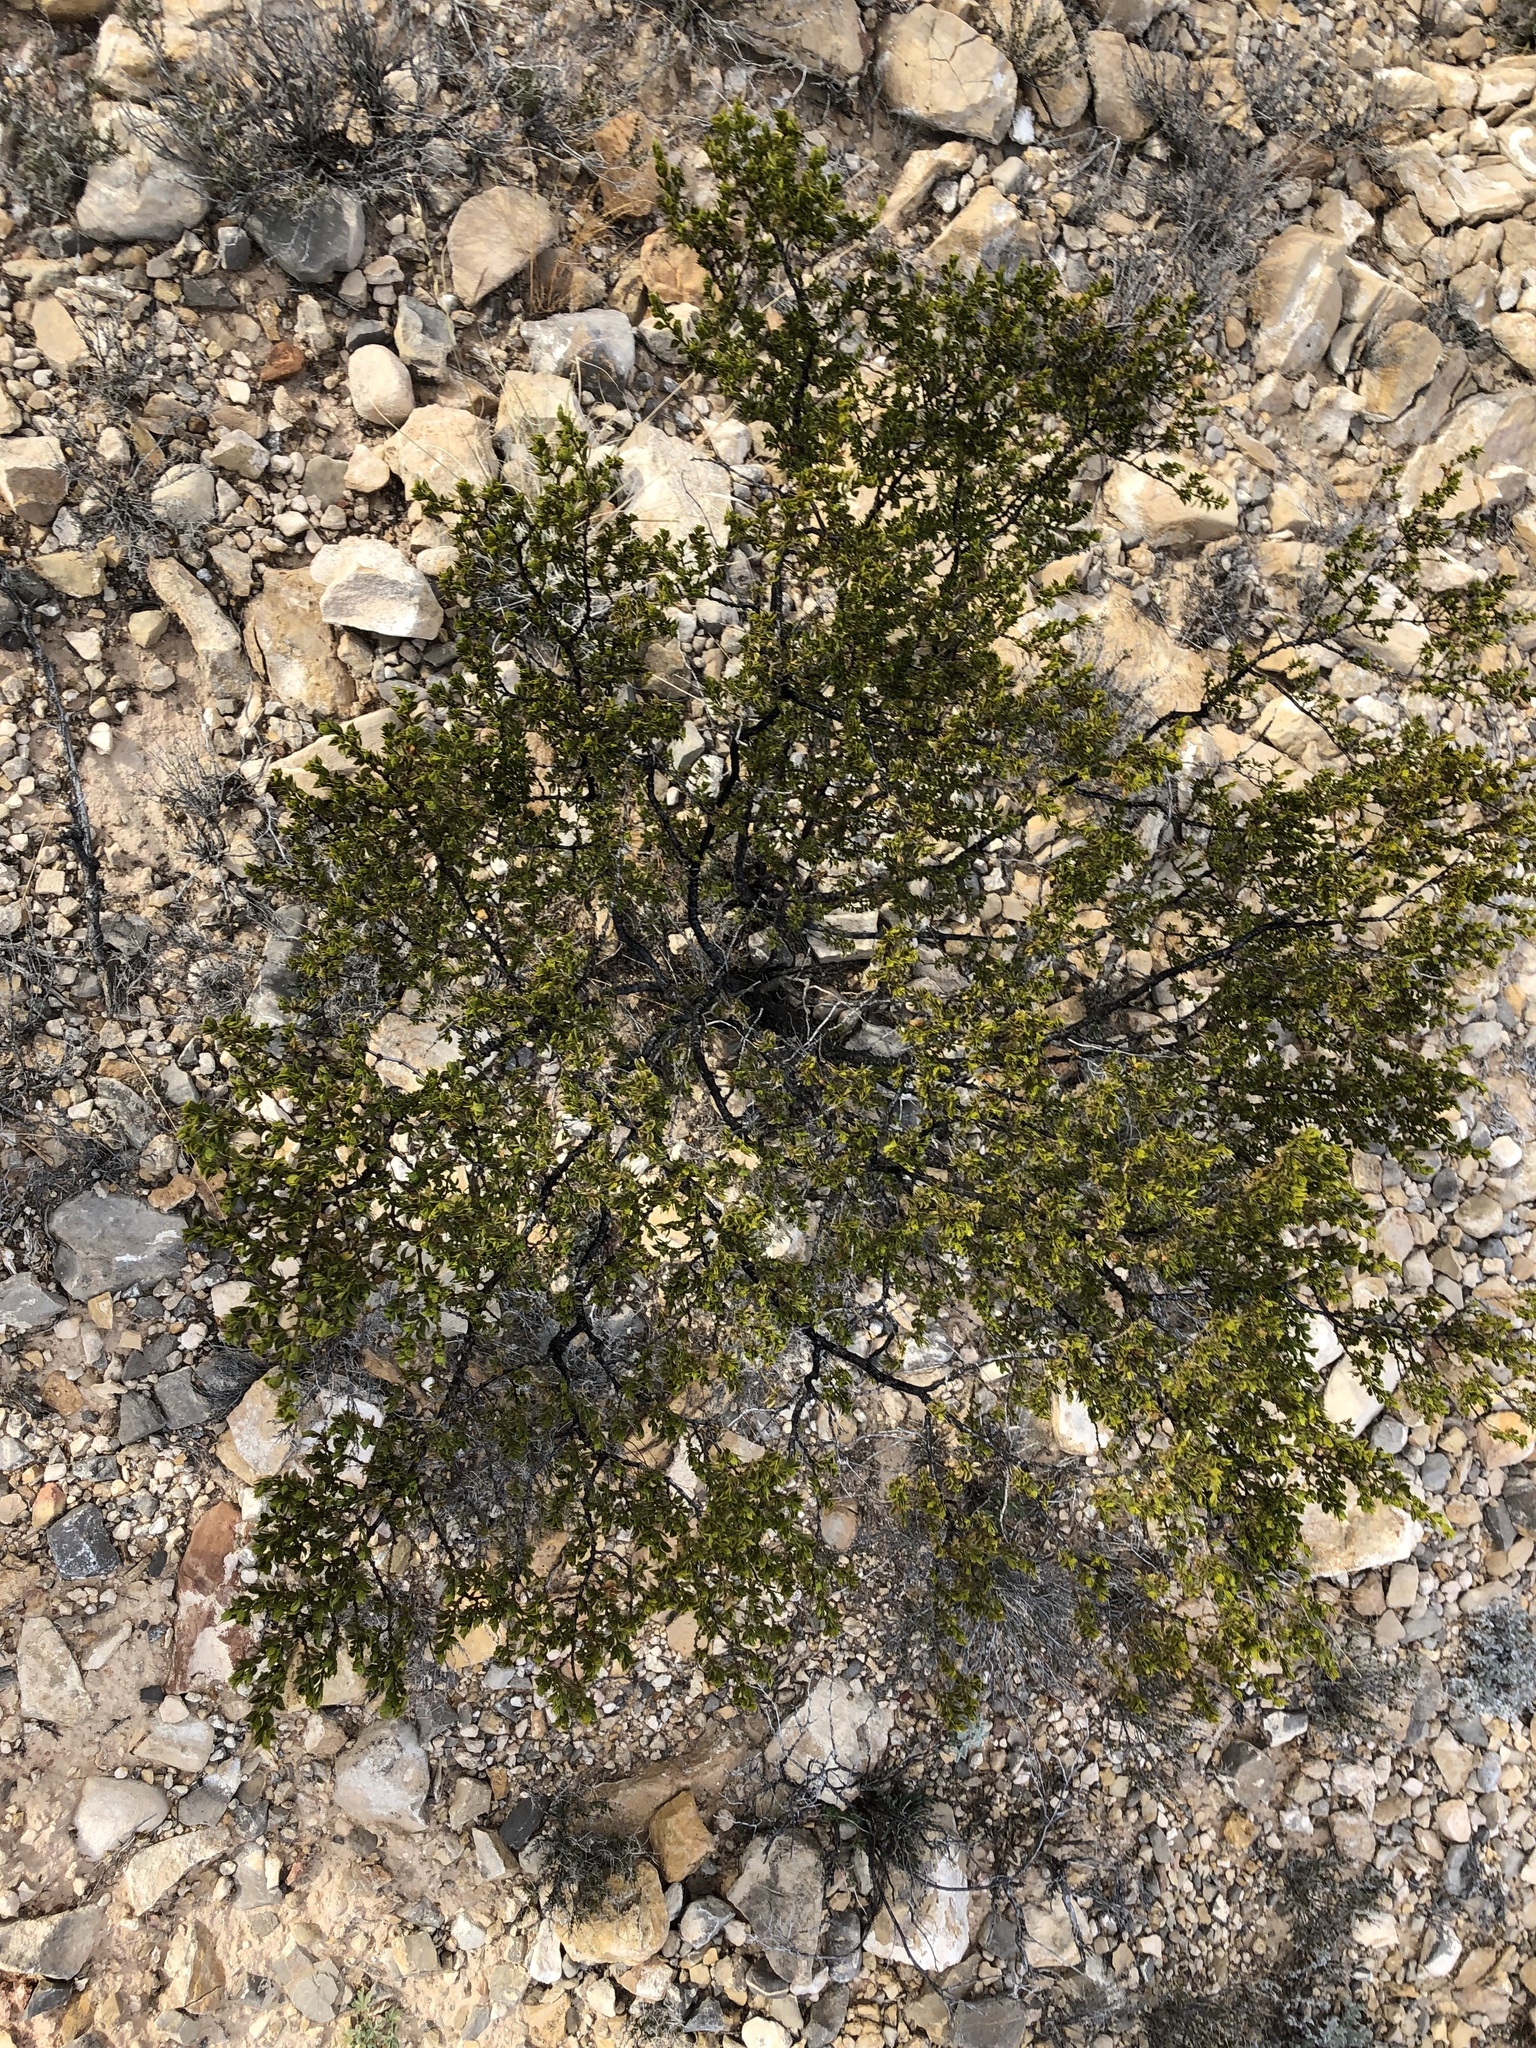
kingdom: Plantae
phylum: Tracheophyta
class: Magnoliopsida
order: Zygophyllales
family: Zygophyllaceae
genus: Larrea
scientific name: Larrea tridentata
